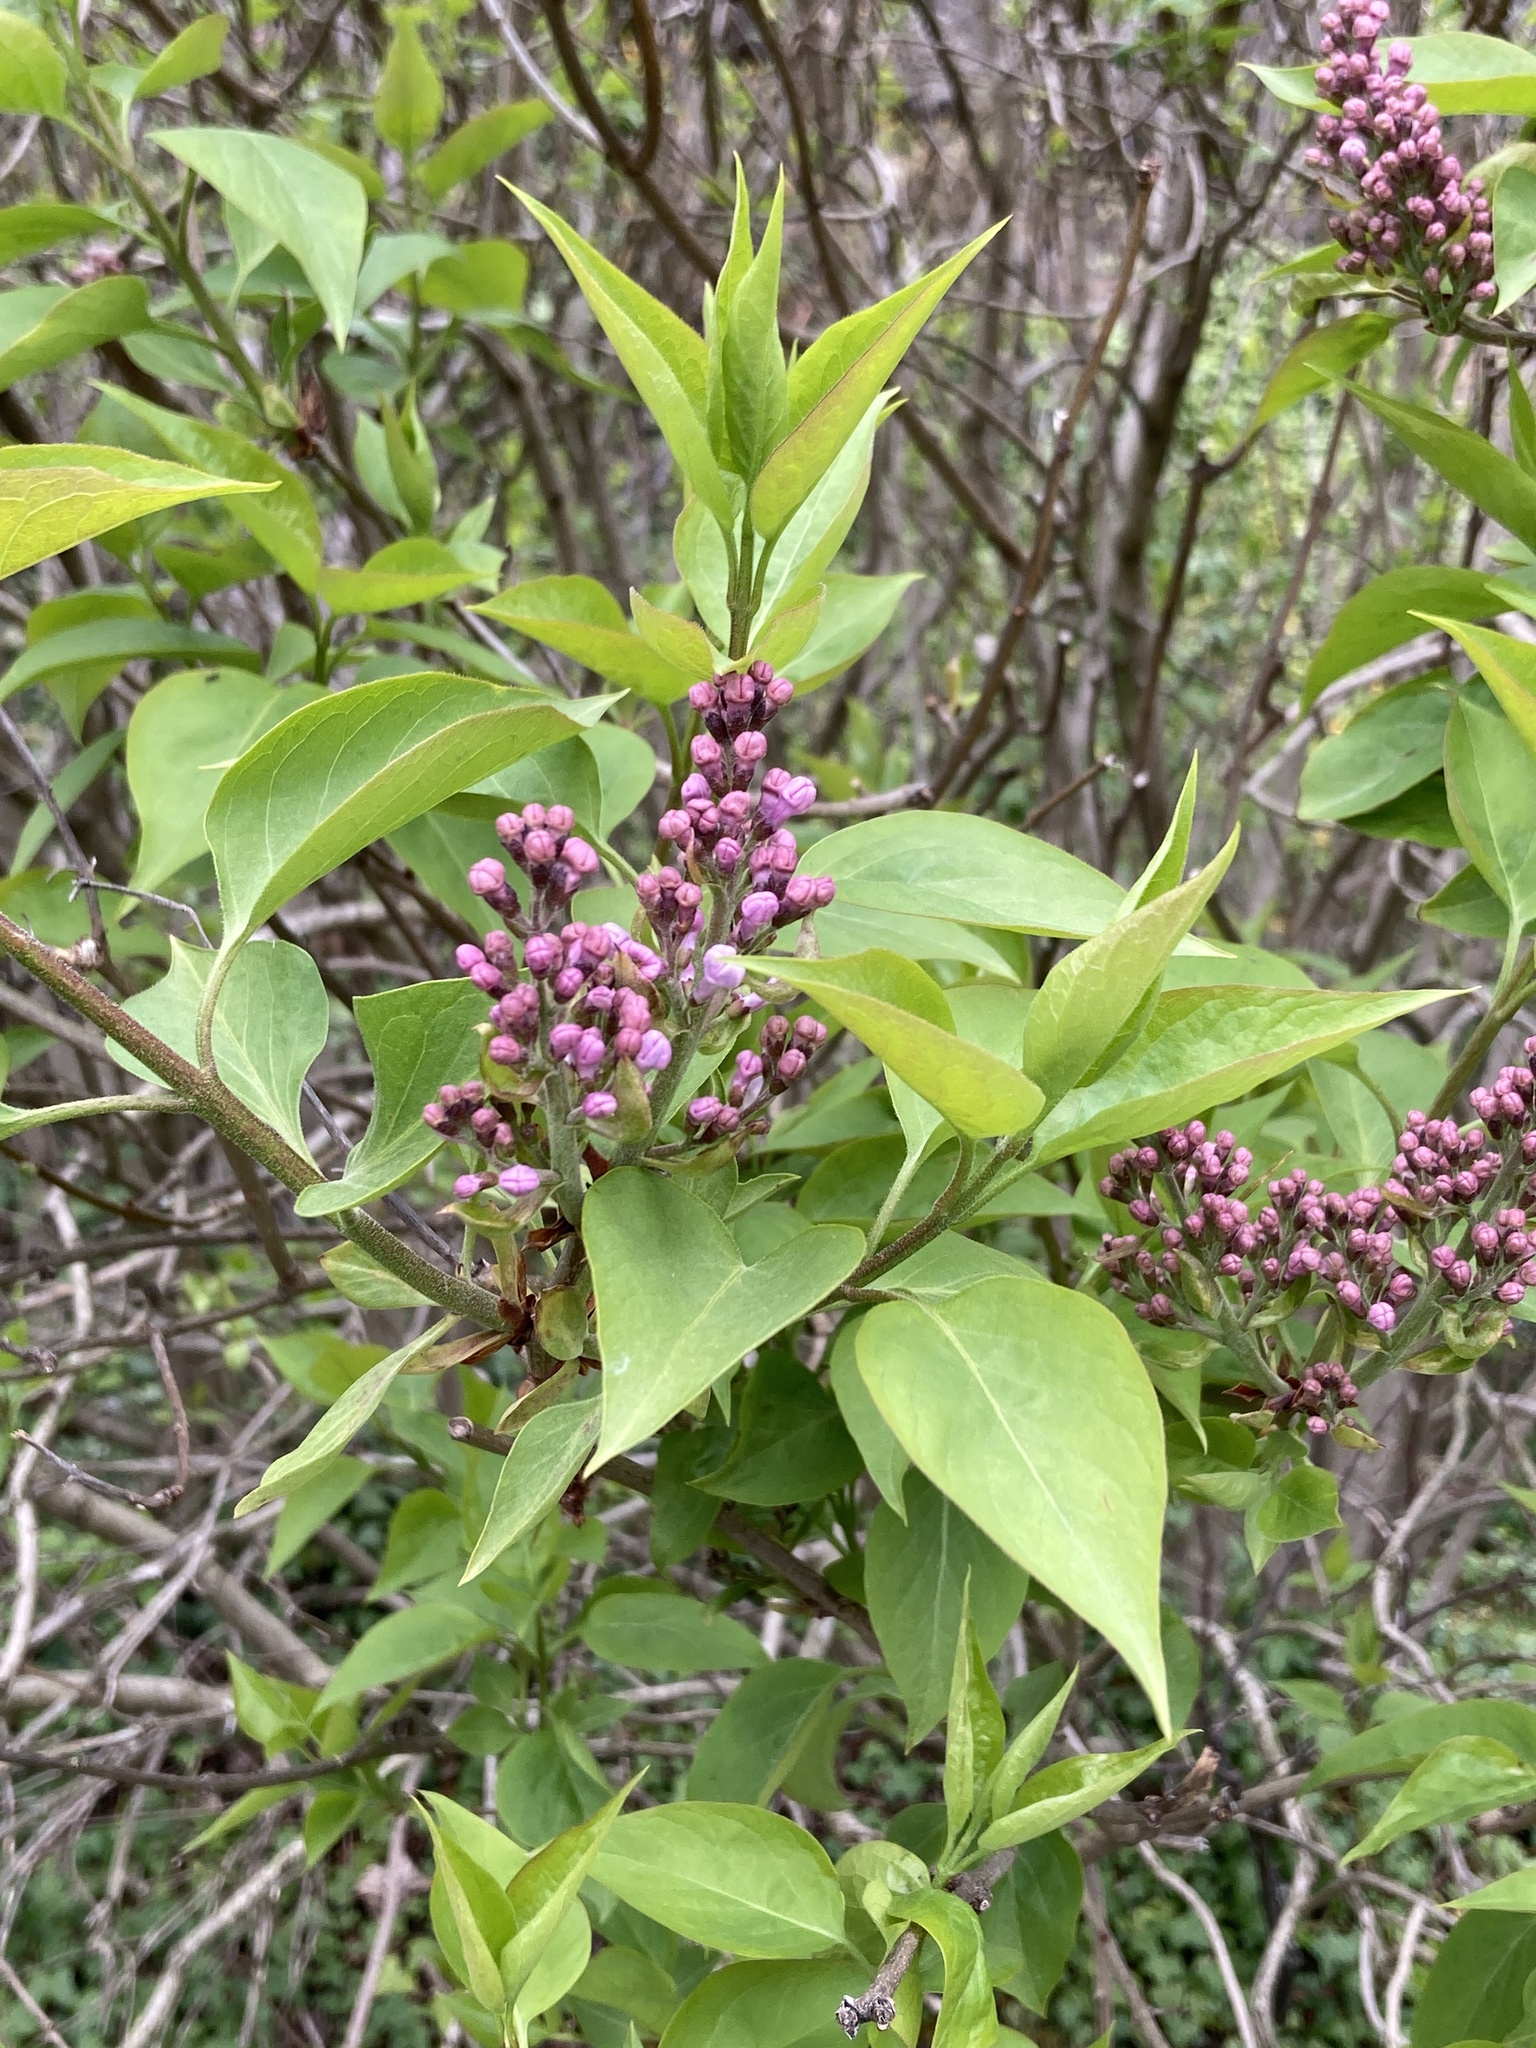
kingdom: Plantae
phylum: Tracheophyta
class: Magnoliopsida
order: Lamiales
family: Oleaceae
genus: Syringa
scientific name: Syringa vulgaris
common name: Common lilac
